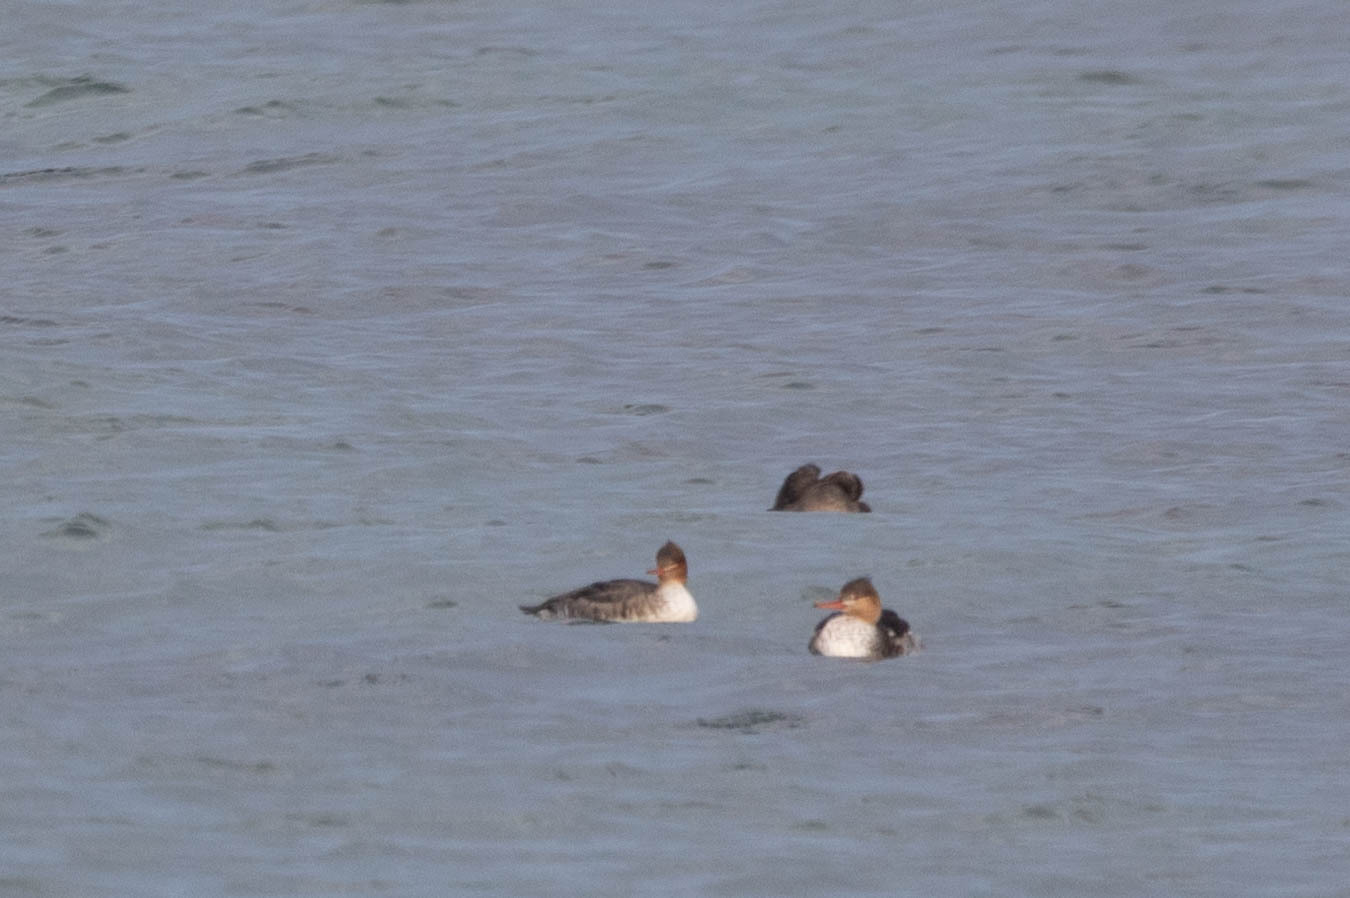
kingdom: Animalia
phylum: Chordata
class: Aves
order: Anseriformes
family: Anatidae
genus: Mergus
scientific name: Mergus serrator
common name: Red-breasted merganser
